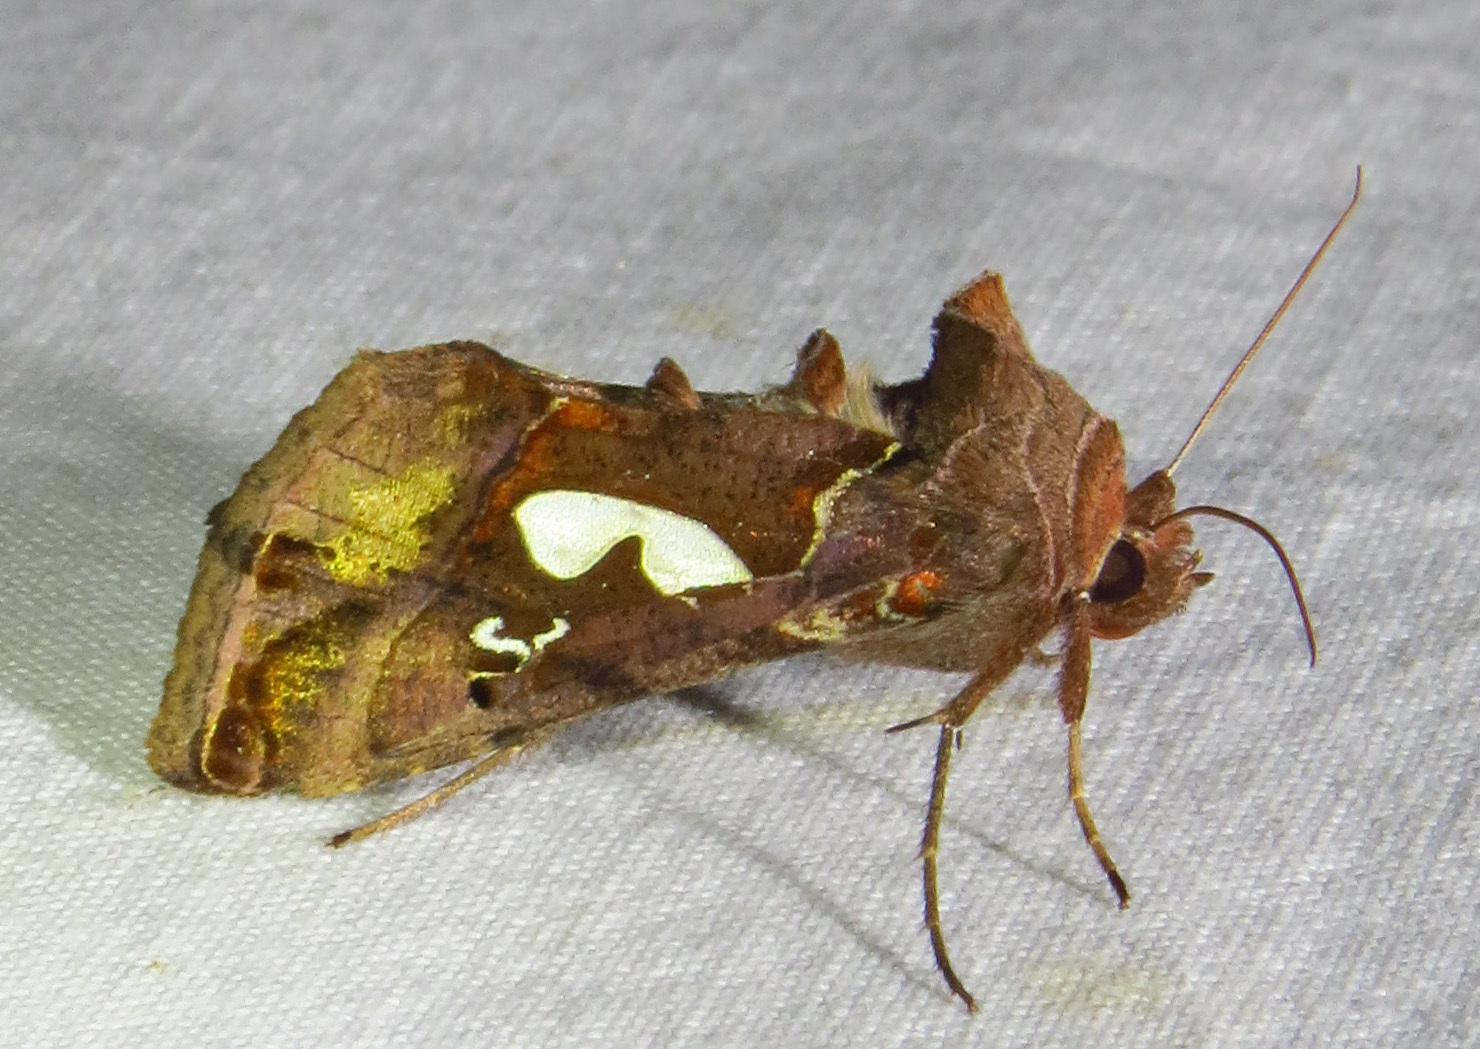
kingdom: Animalia
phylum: Arthropoda
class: Insecta
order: Lepidoptera
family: Noctuidae
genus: Megalographa
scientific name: Megalographa biloba
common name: Cutworm
